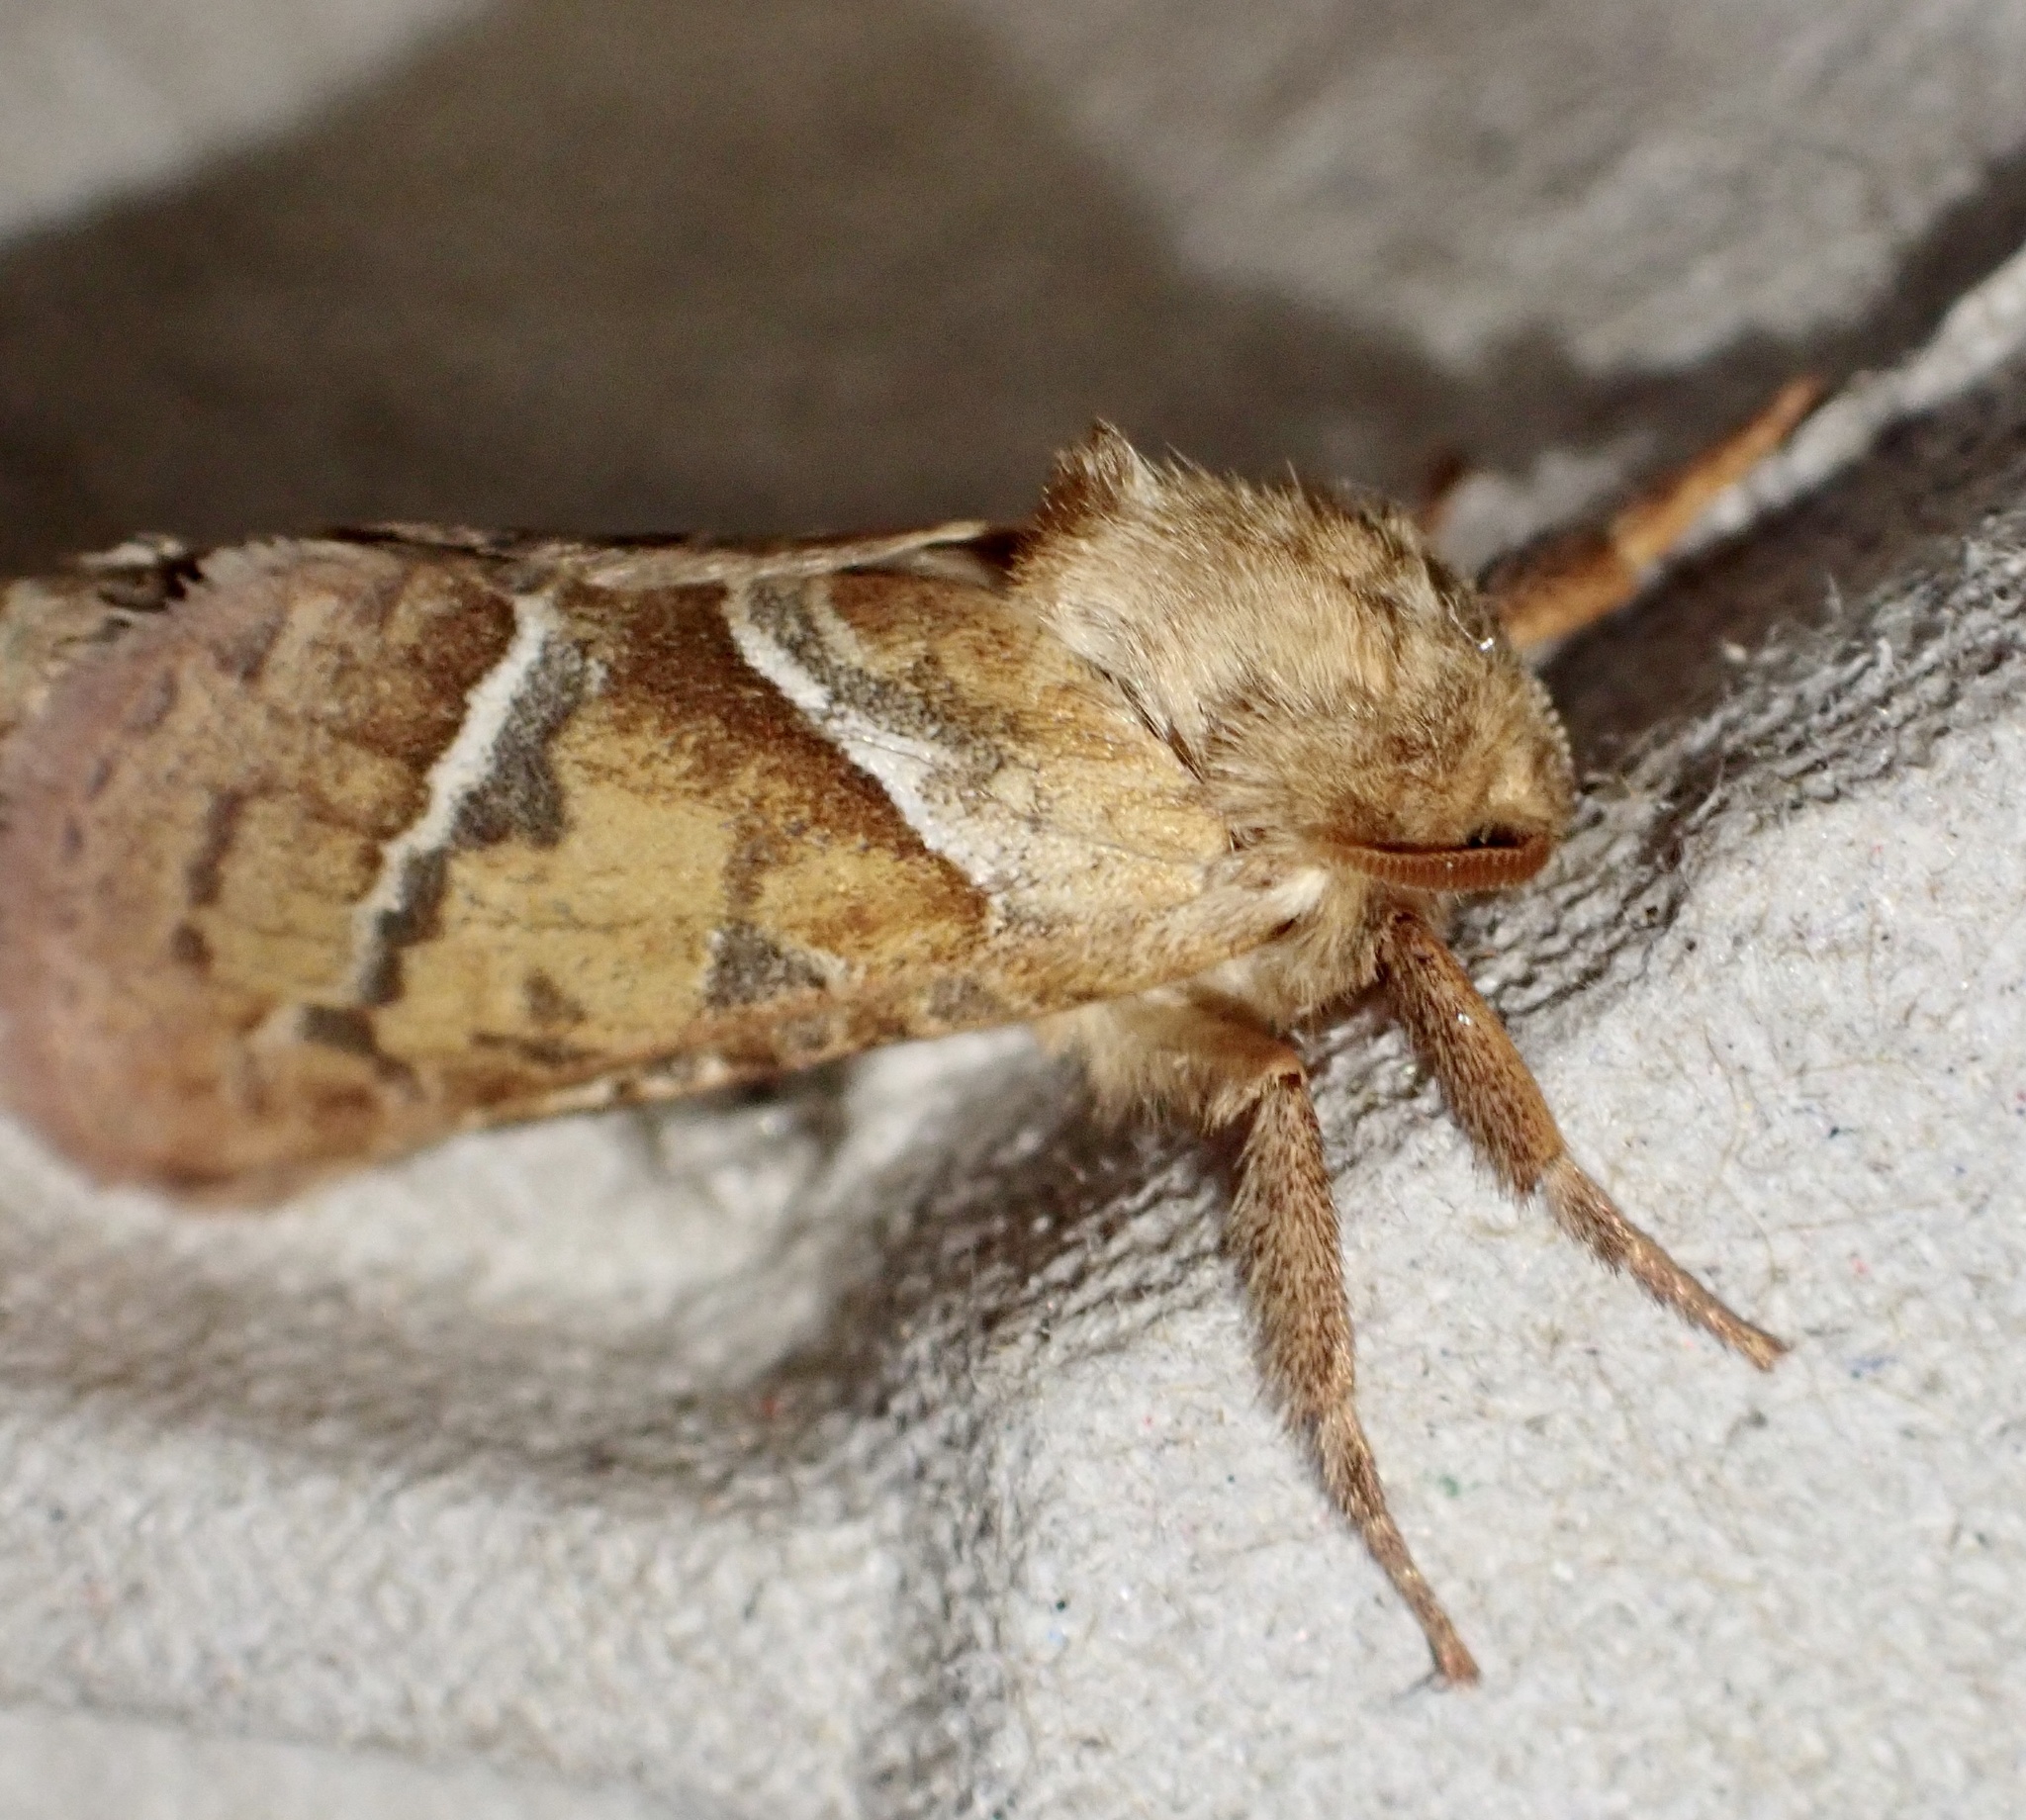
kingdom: Animalia
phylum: Arthropoda
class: Insecta
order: Lepidoptera
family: Hepialidae
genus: Triodia
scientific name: Triodia sylvina
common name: Orange swift
